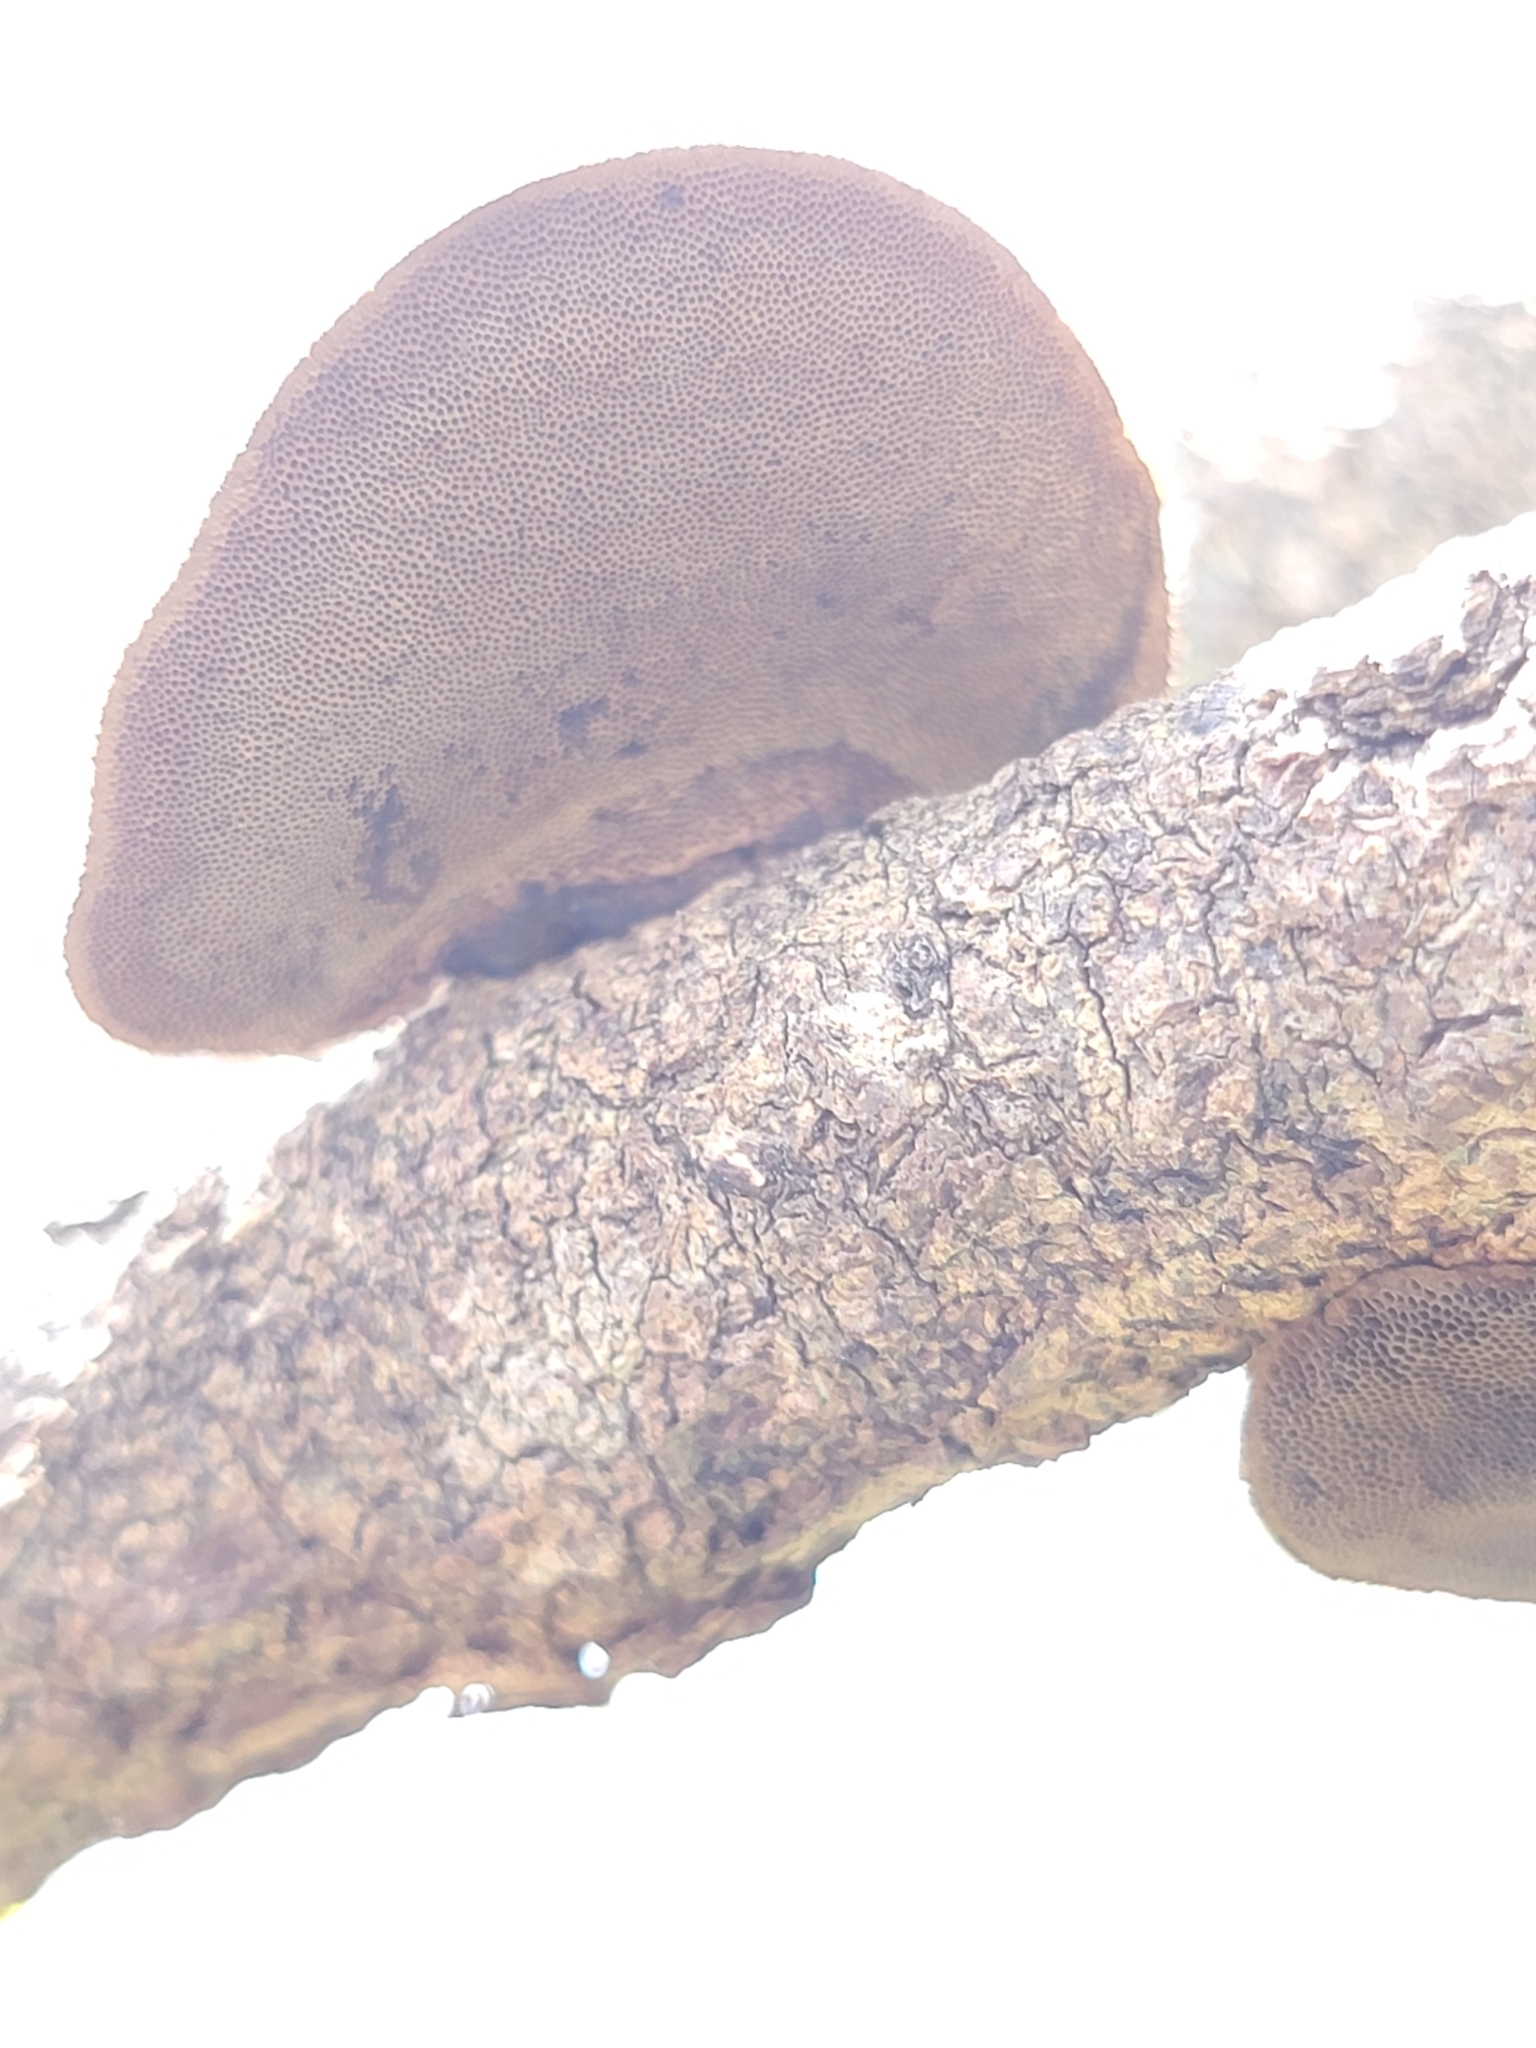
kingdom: Fungi
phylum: Basidiomycota
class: Agaricomycetes
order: Polyporales
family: Cerrenaceae
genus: Cerrena
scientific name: Cerrena hydnoides
